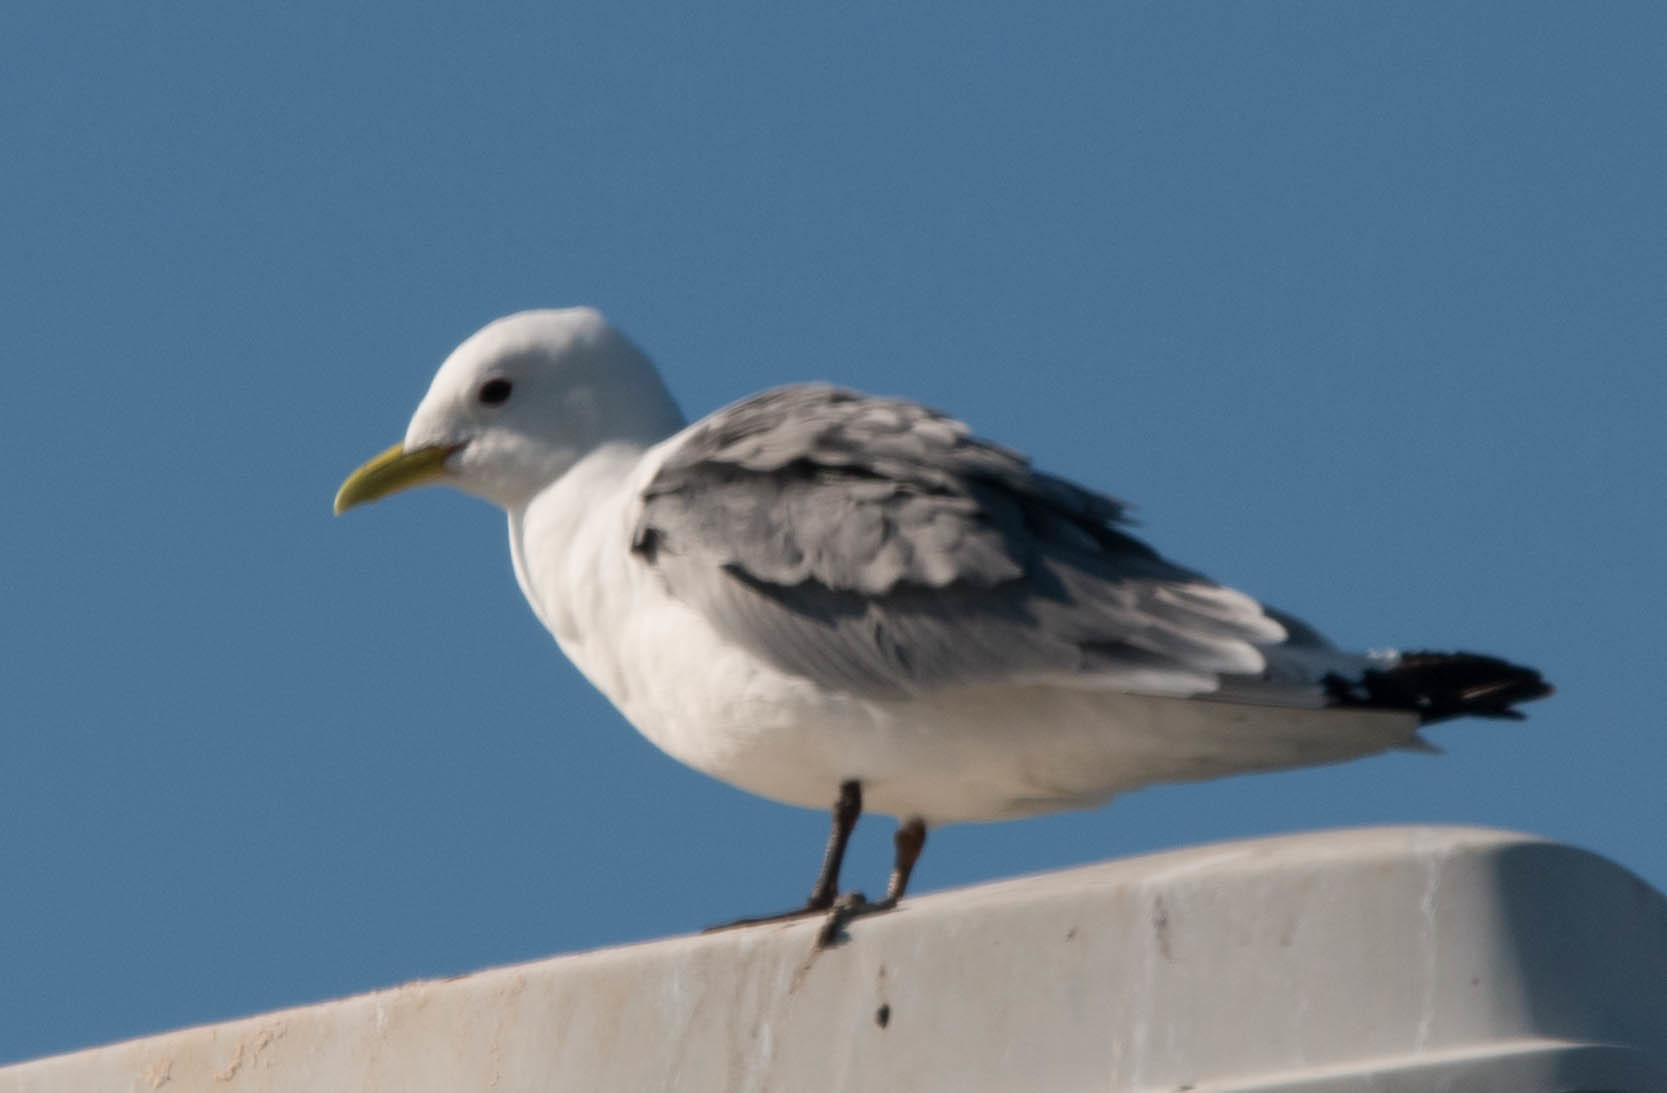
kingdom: Animalia
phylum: Chordata
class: Aves
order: Charadriiformes
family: Laridae
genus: Rissa
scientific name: Rissa tridactyla
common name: Black-legged kittiwake
